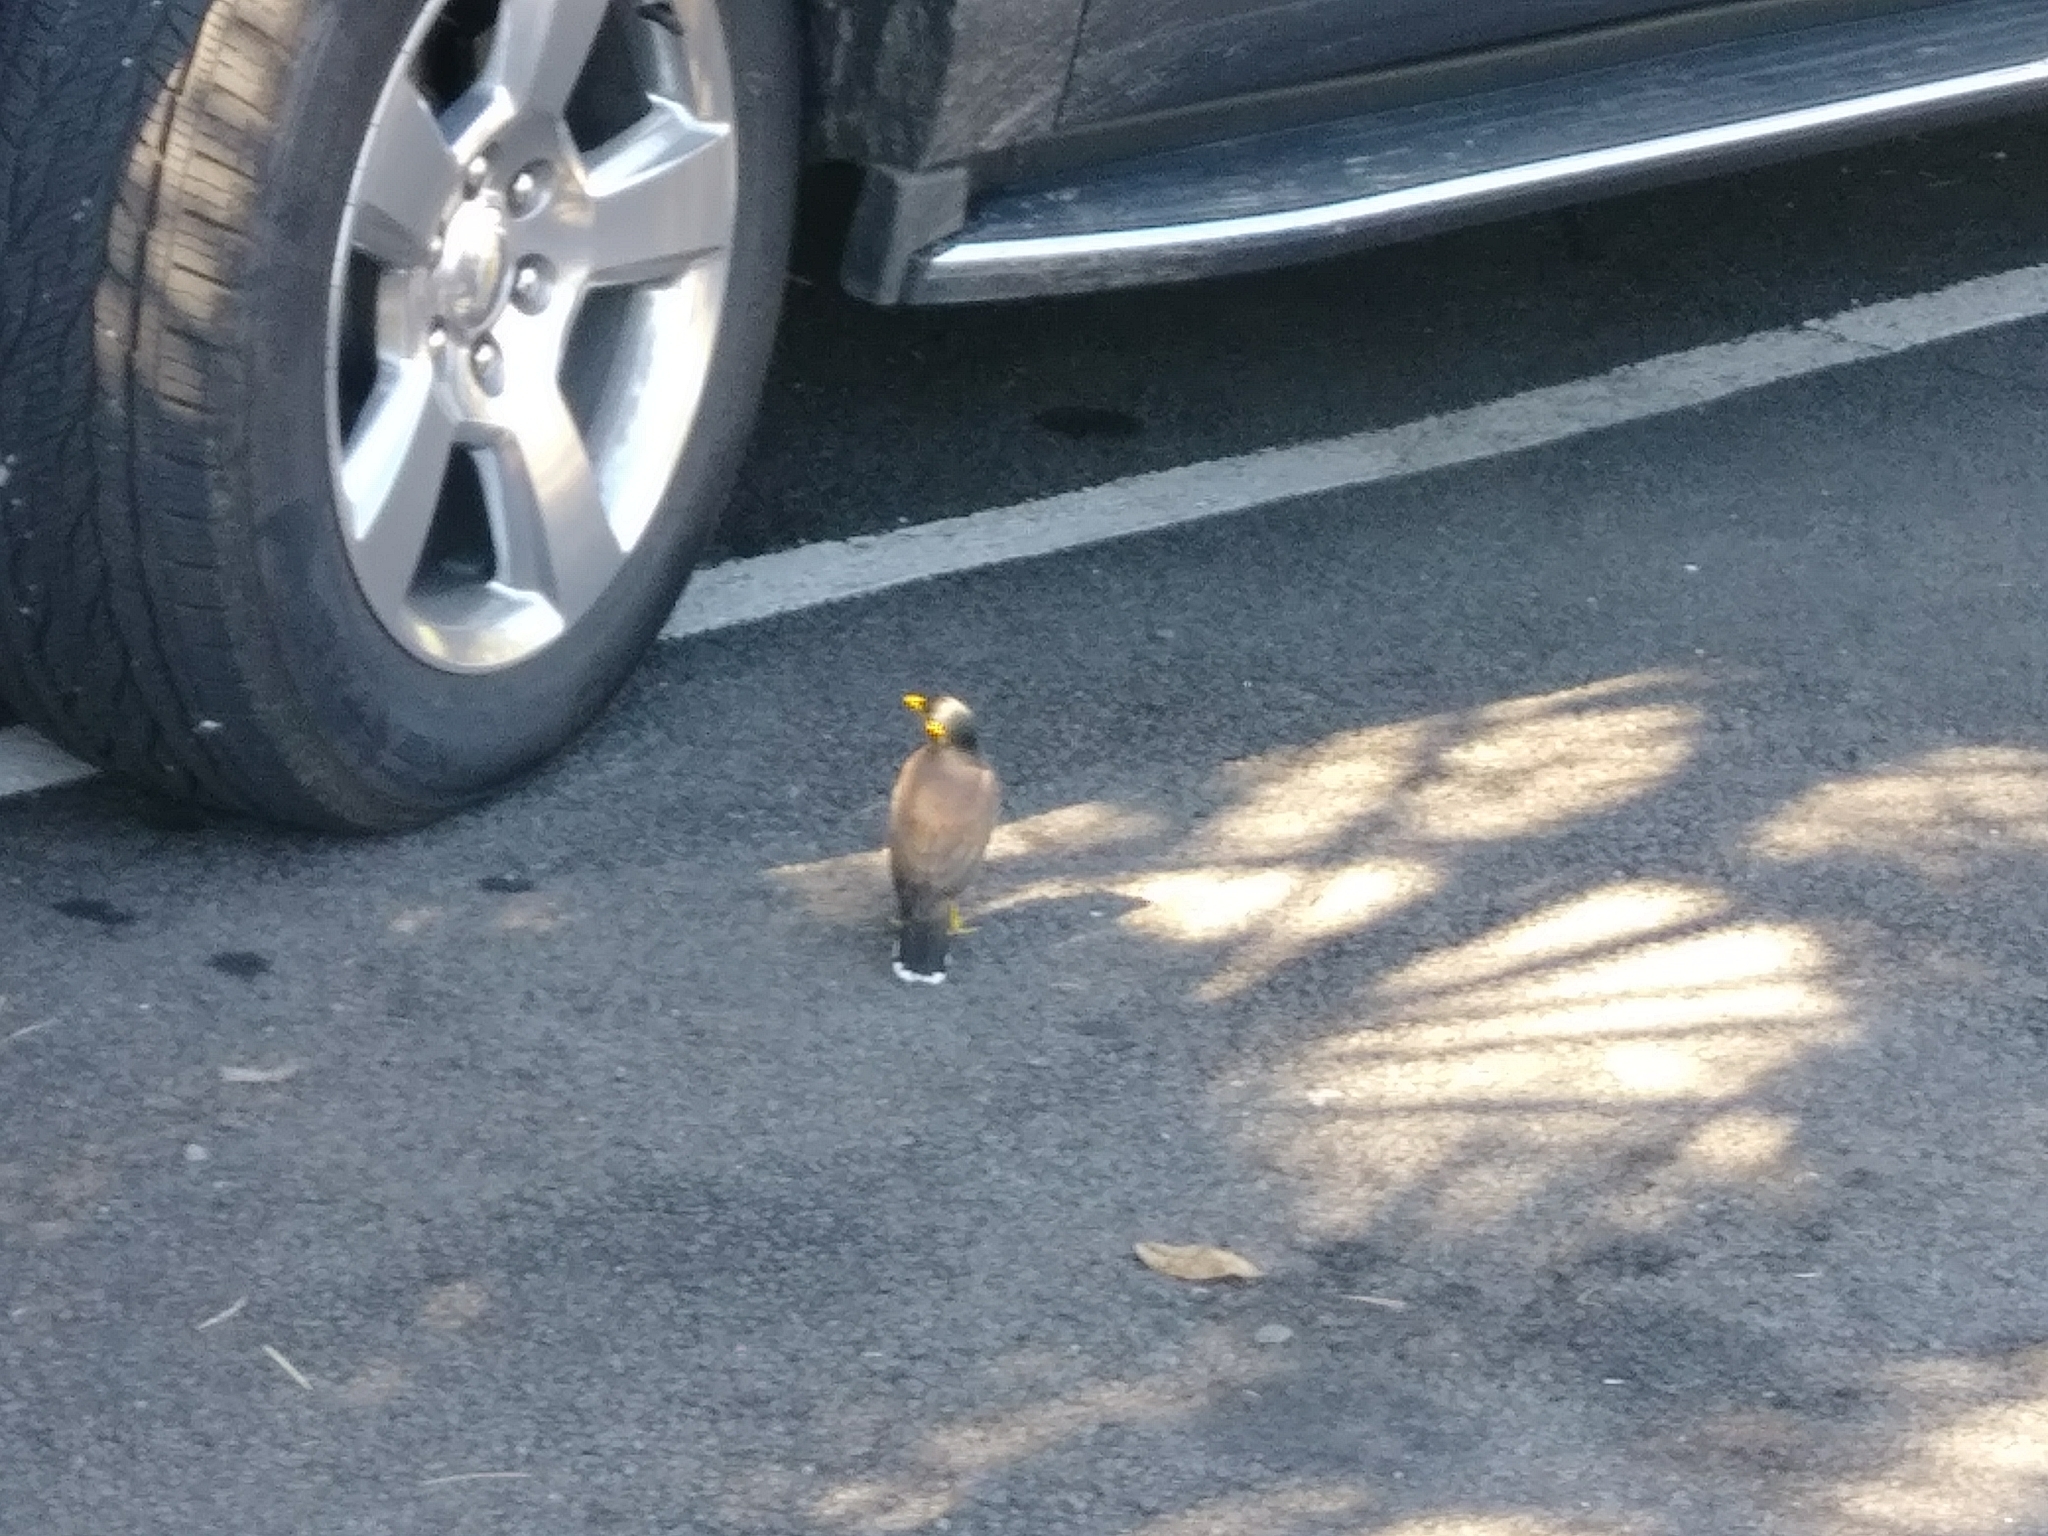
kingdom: Animalia
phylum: Chordata
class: Aves
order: Passeriformes
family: Sturnidae
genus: Acridotheres
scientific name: Acridotheres tristis
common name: Common myna
